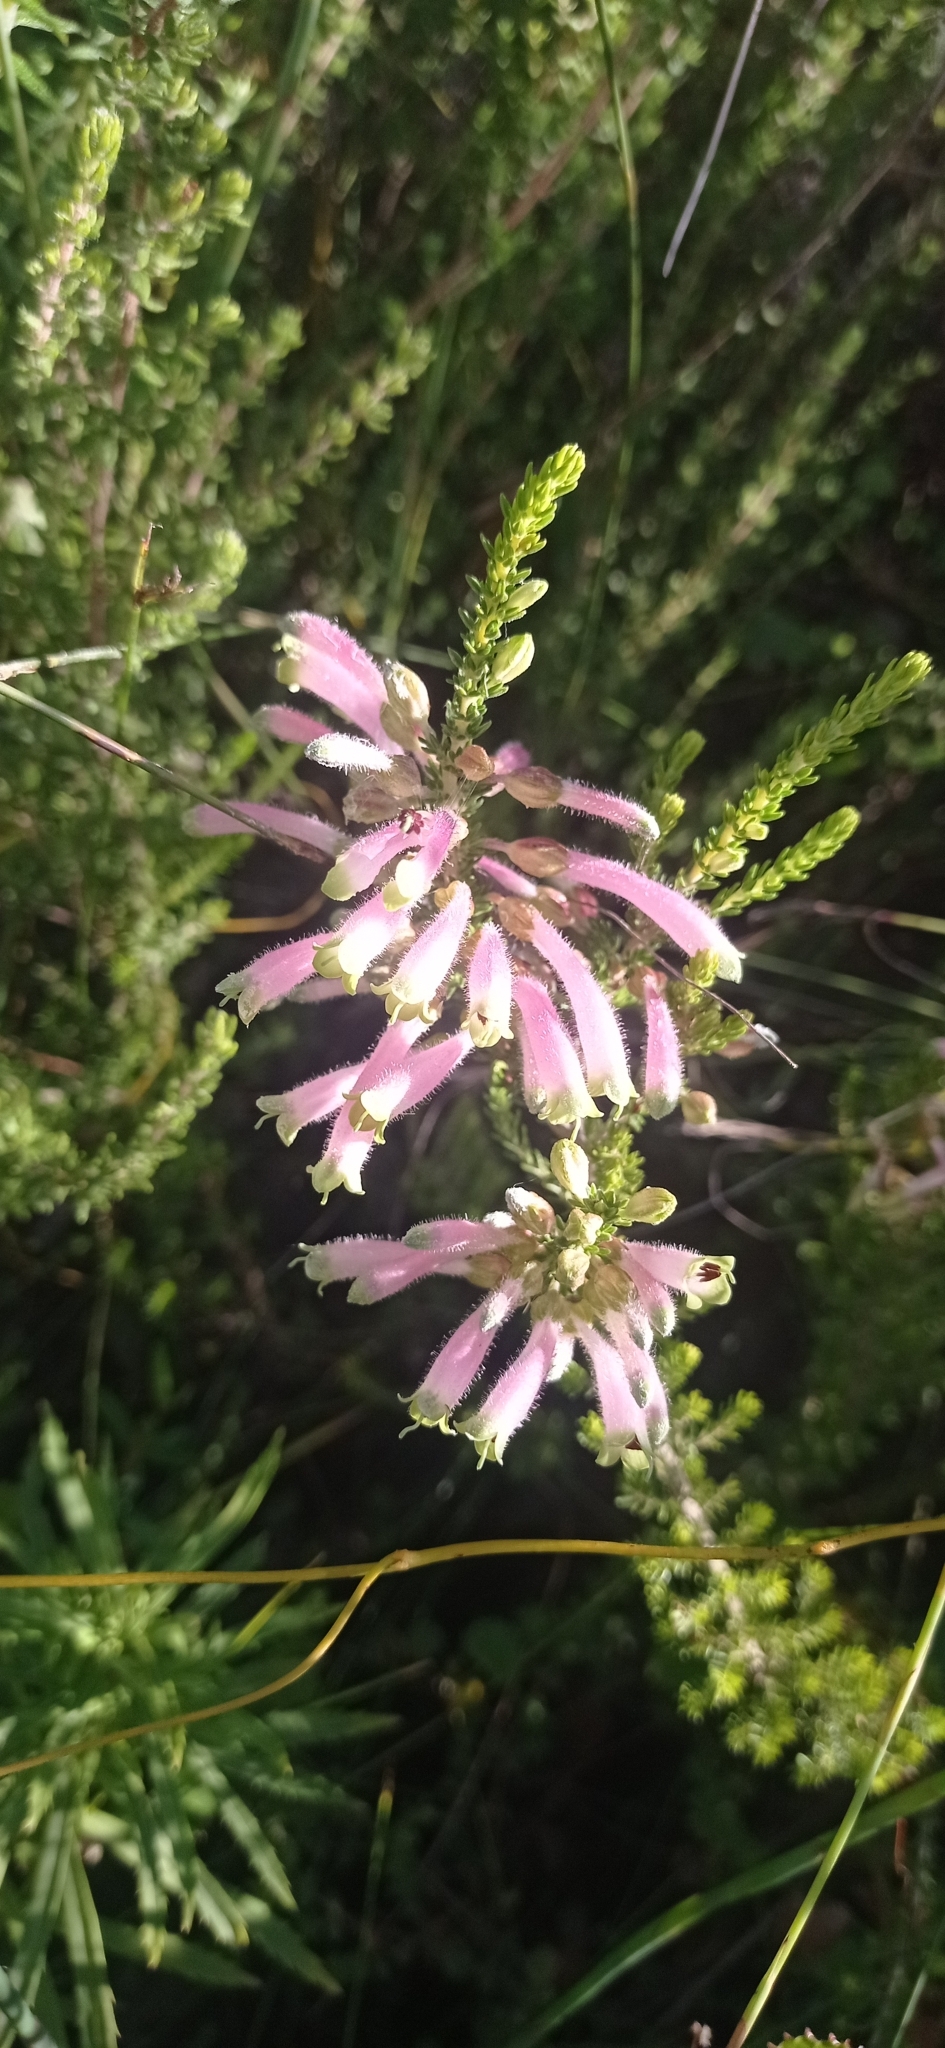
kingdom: Plantae
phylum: Tracheophyta
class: Magnoliopsida
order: Ericales
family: Ericaceae
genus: Erica
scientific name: Erica densifolia
